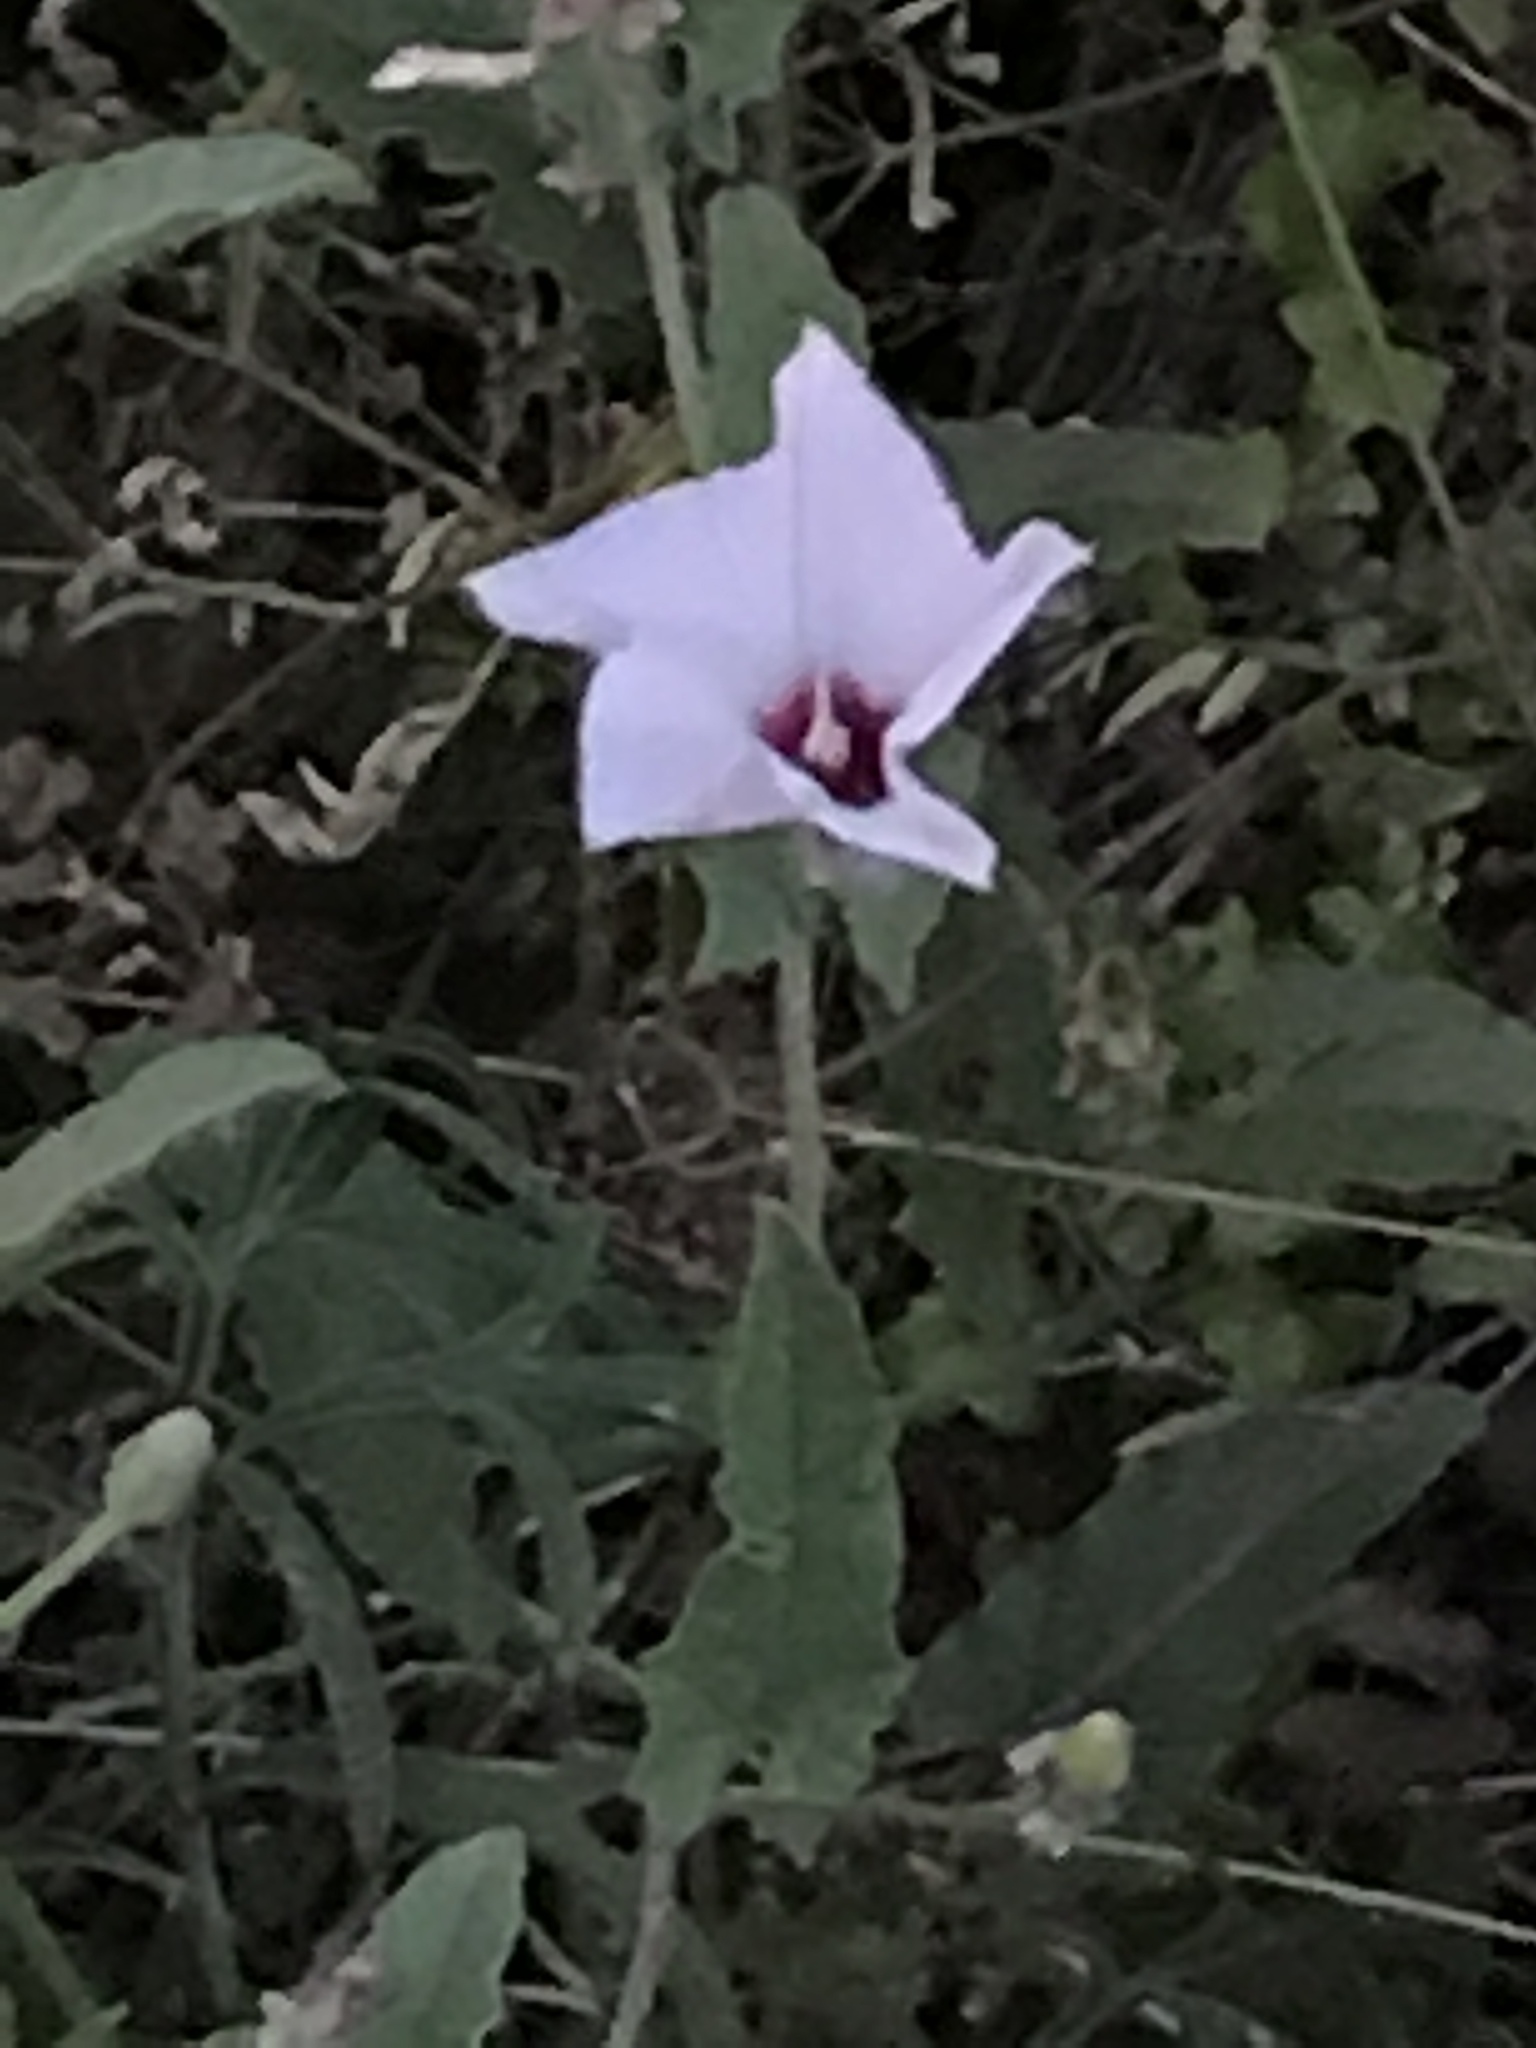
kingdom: Plantae
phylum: Tracheophyta
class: Magnoliopsida
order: Solanales
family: Convolvulaceae
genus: Convolvulus
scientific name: Convolvulus equitans
